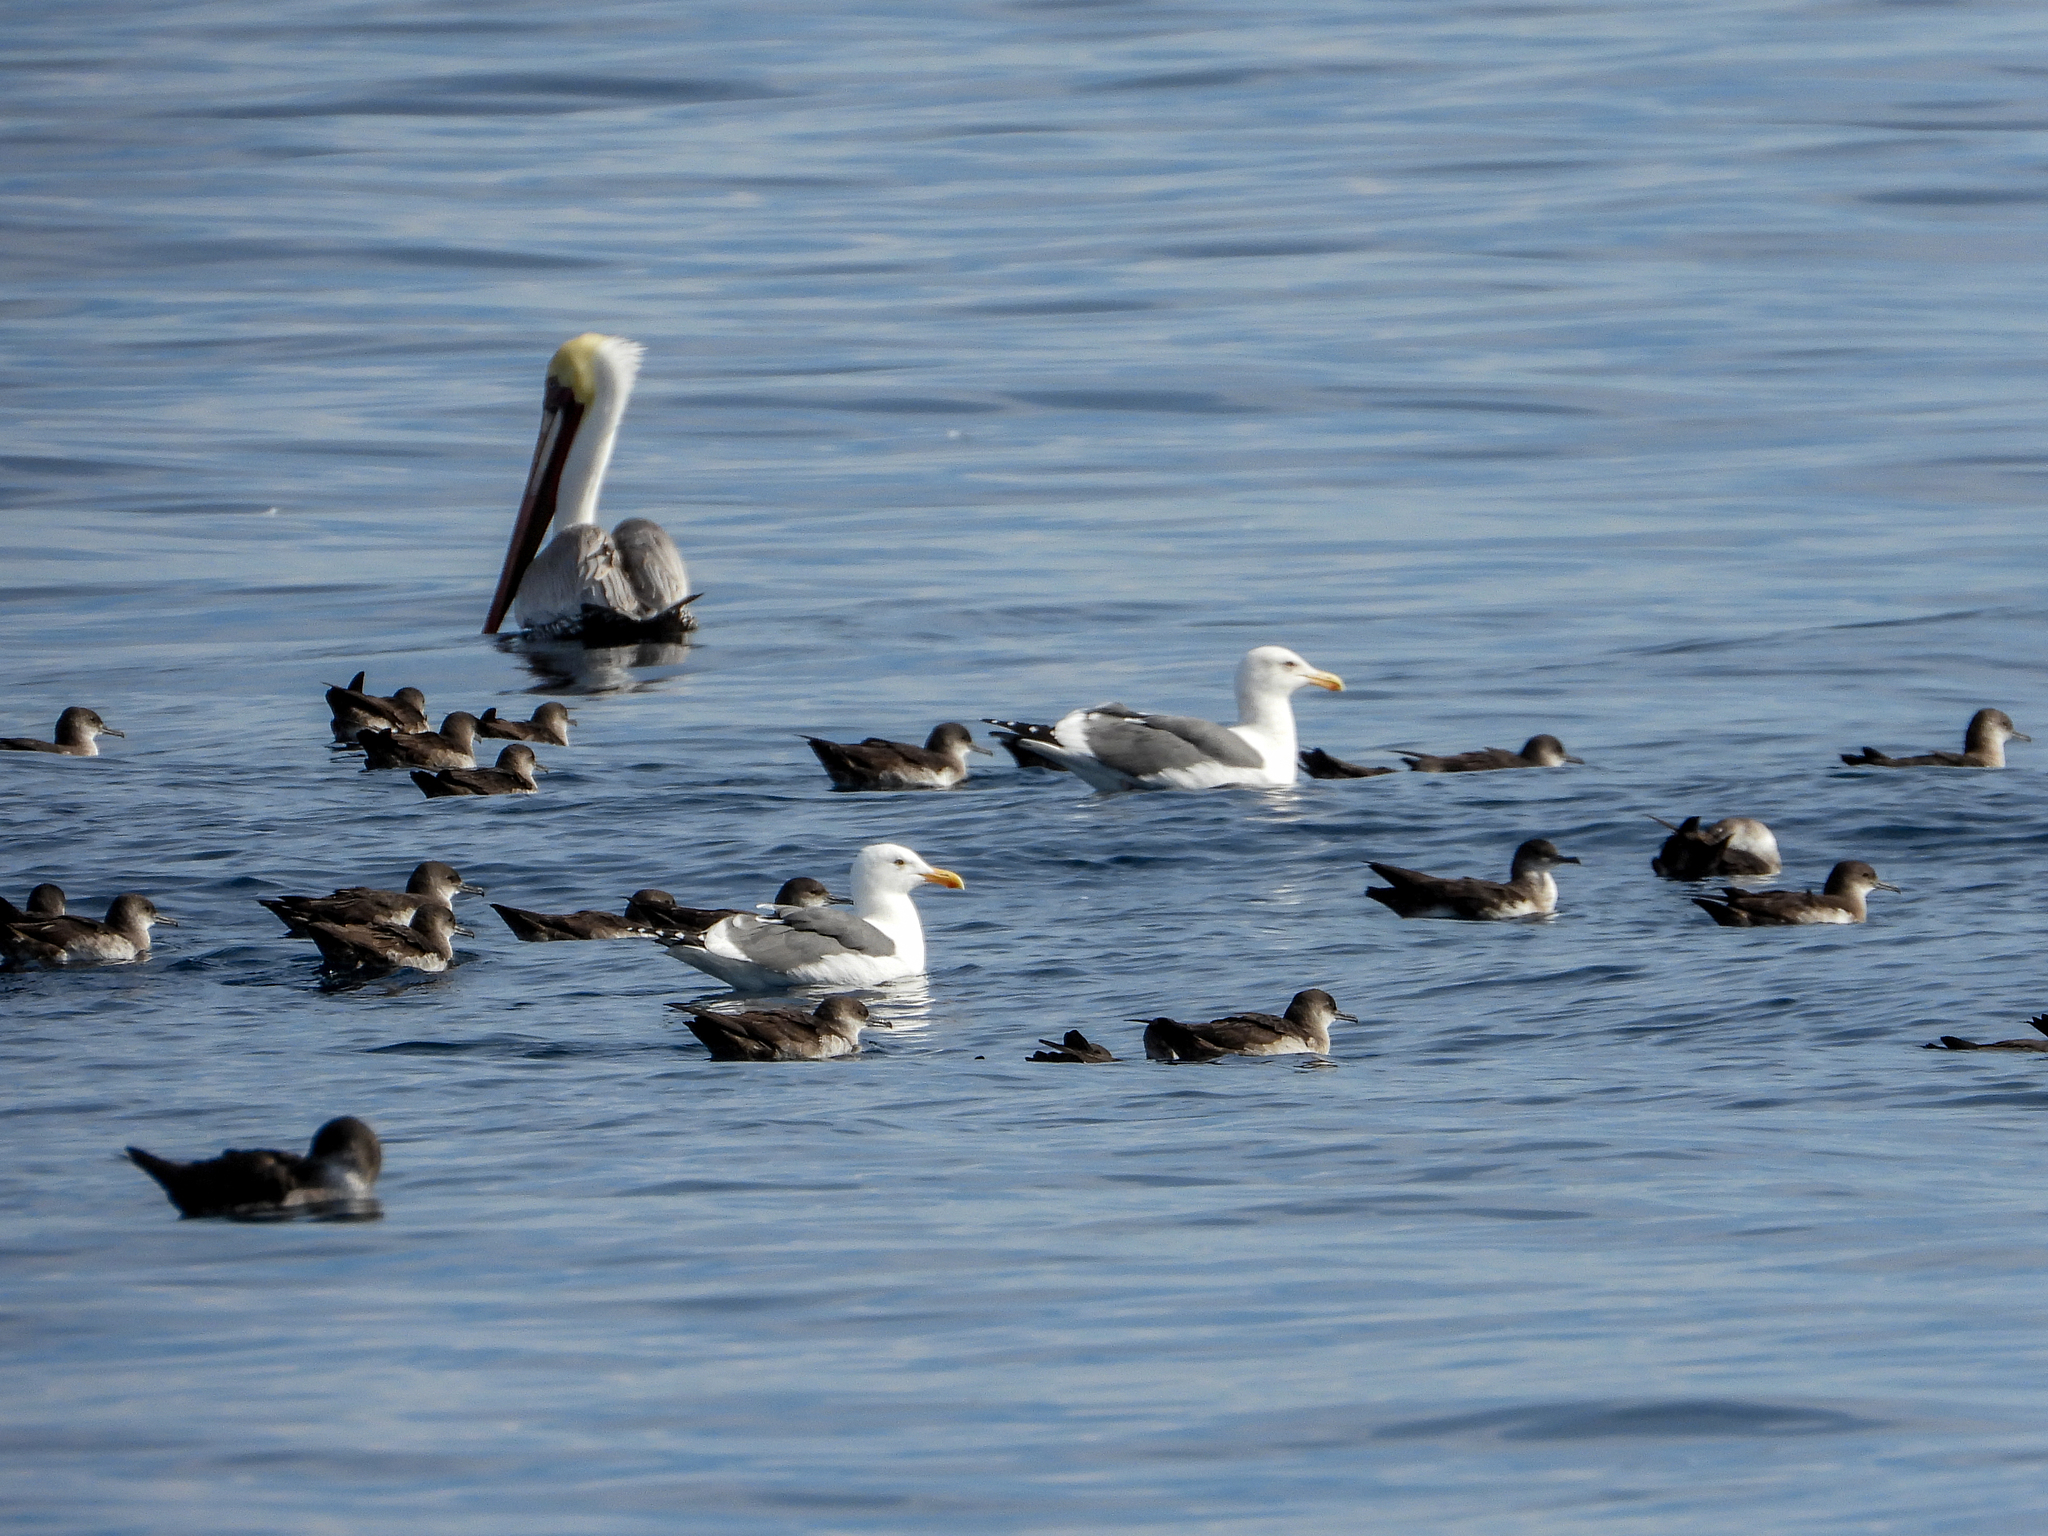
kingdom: Animalia
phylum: Chordata
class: Aves
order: Charadriiformes
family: Laridae
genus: Larus
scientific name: Larus occidentalis
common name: Western gull
